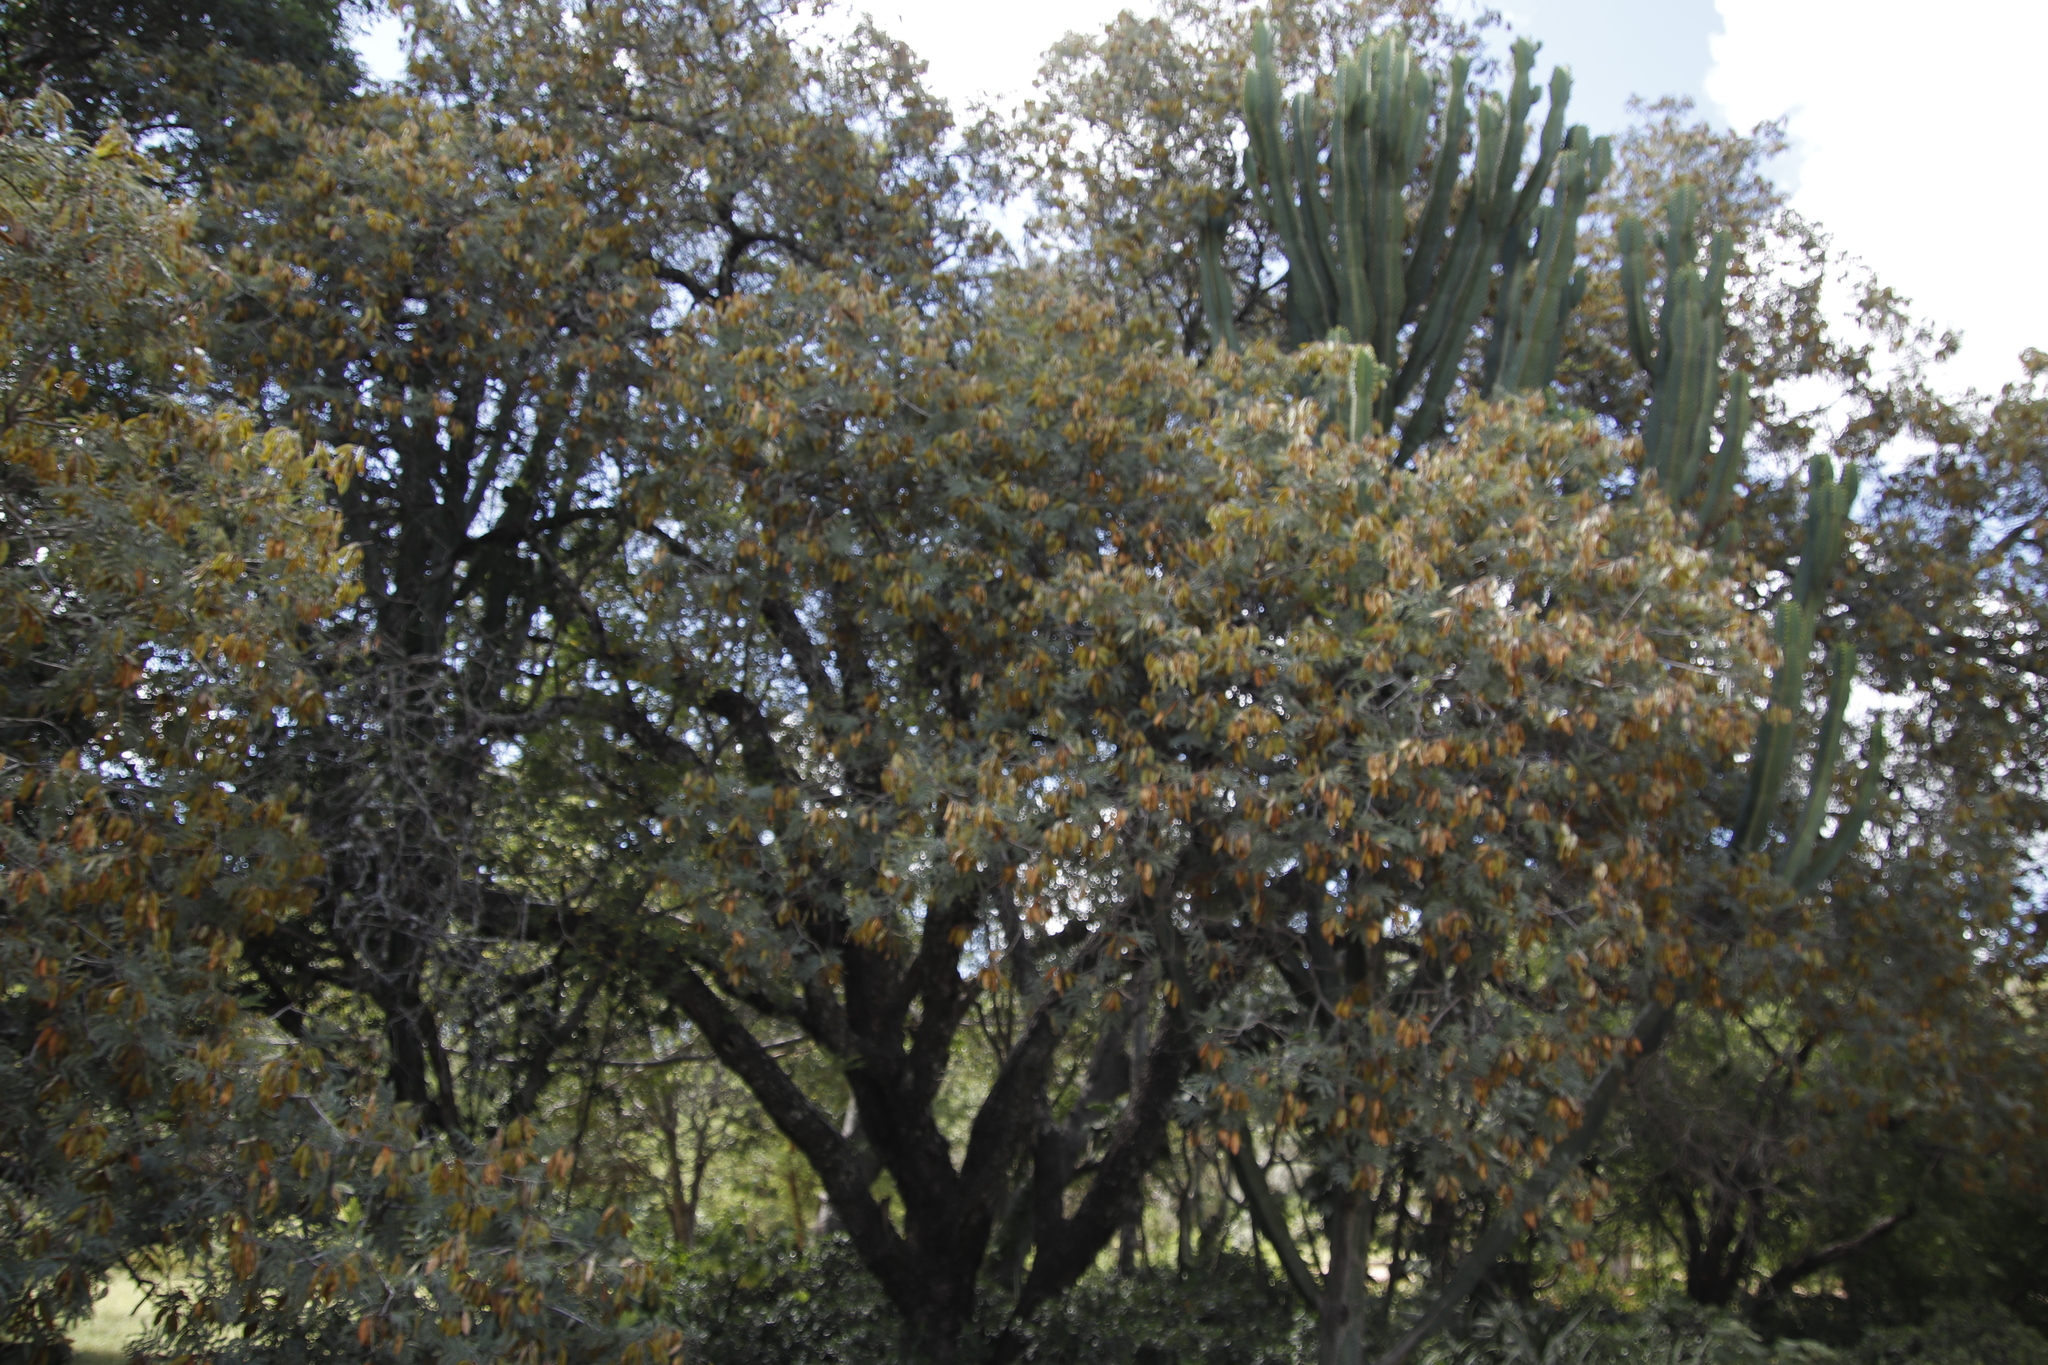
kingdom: Plantae
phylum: Tracheophyta
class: Magnoliopsida
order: Fabales
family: Fabaceae
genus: Peltophorum
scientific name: Peltophorum africanum
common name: African black wattle
